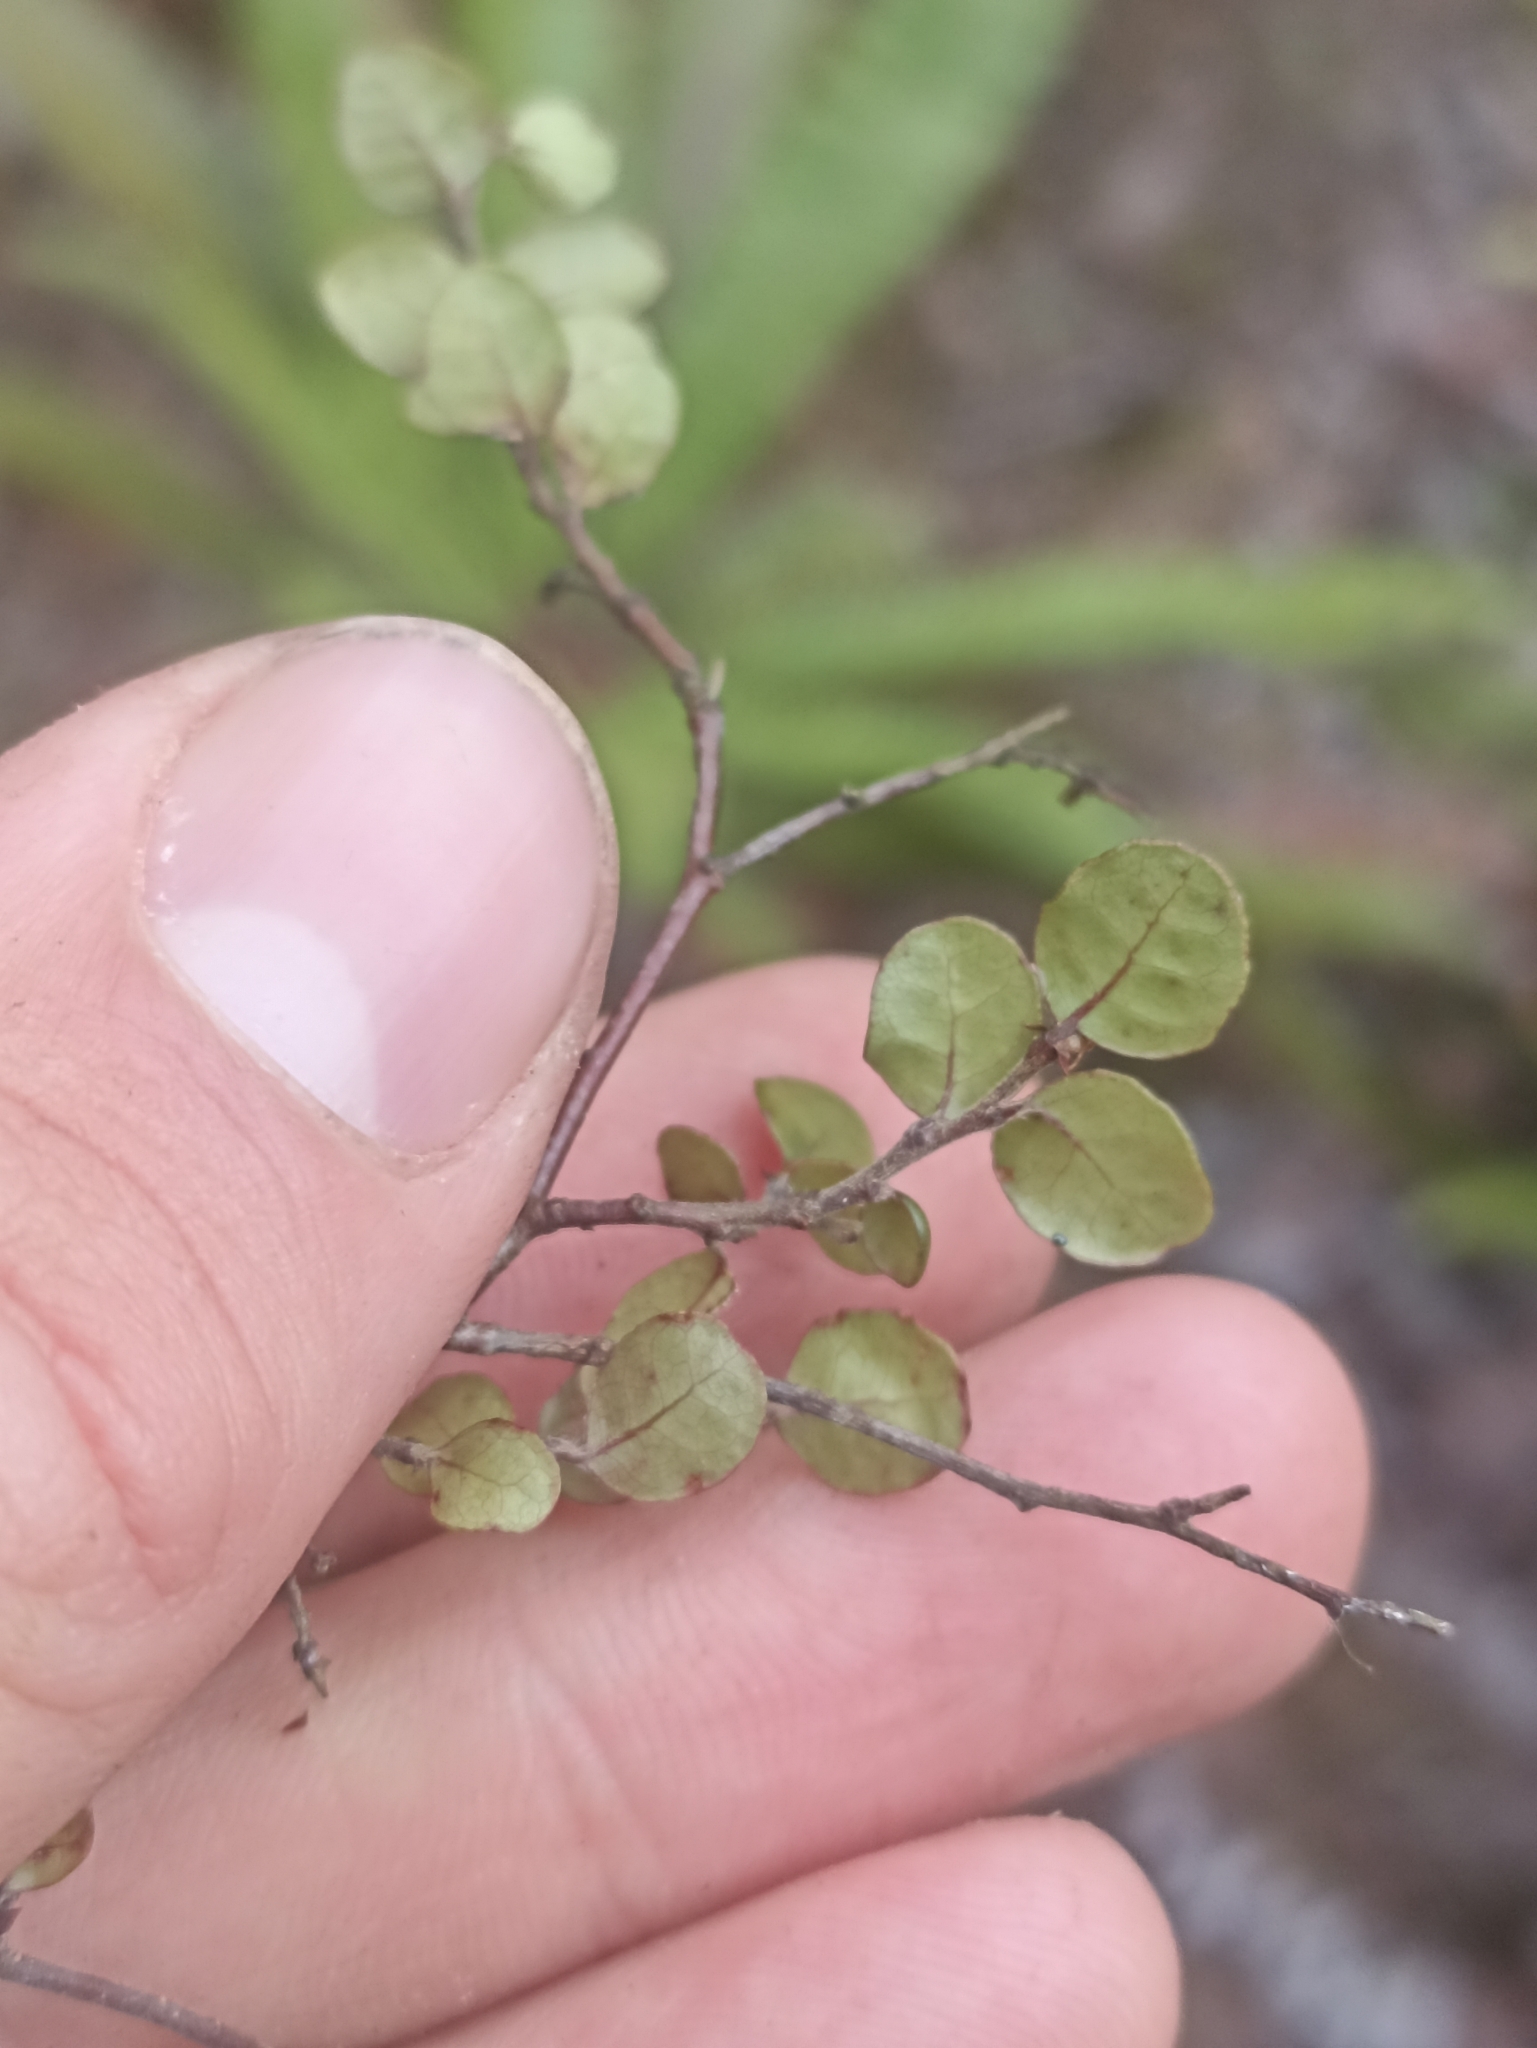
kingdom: Plantae
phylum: Tracheophyta
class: Magnoliopsida
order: Fagales
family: Nothofagaceae
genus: Nothofagus
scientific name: Nothofagus solandri
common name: Black beech
